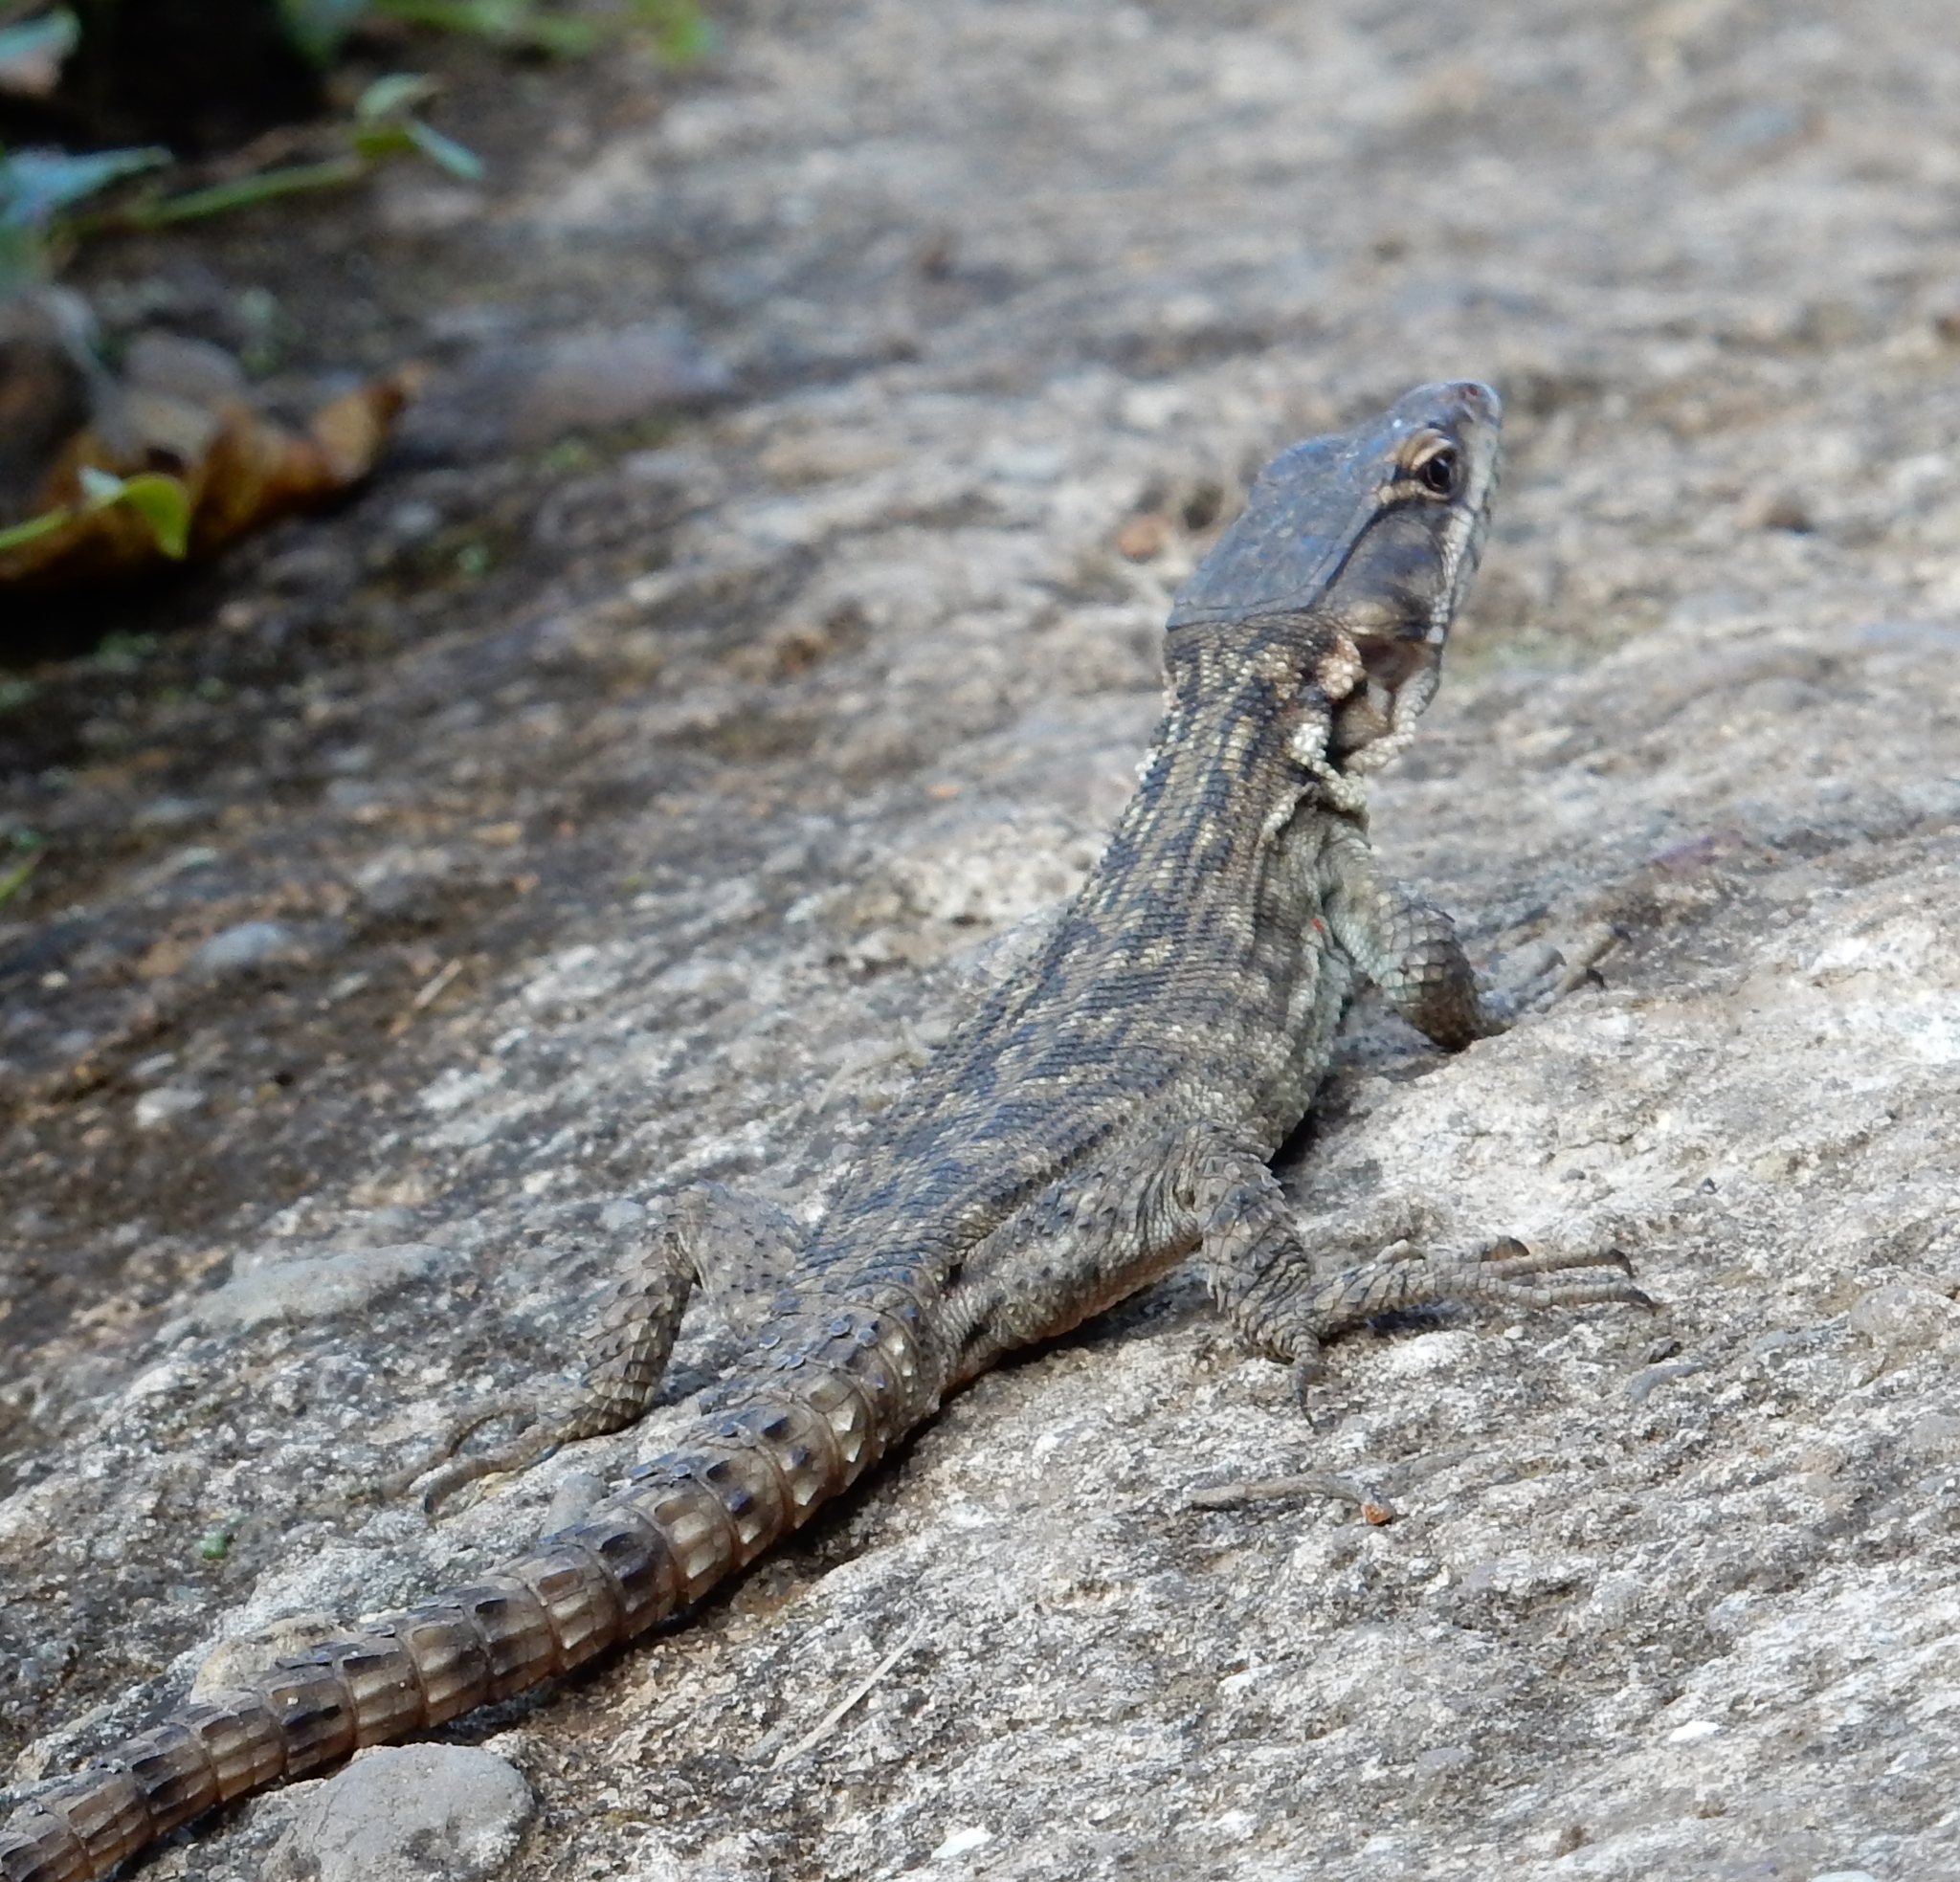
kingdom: Animalia
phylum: Chordata
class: Squamata
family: Cordylidae
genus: Pseudocordylus
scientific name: Pseudocordylus melanotus
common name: Highveld crag lizard
